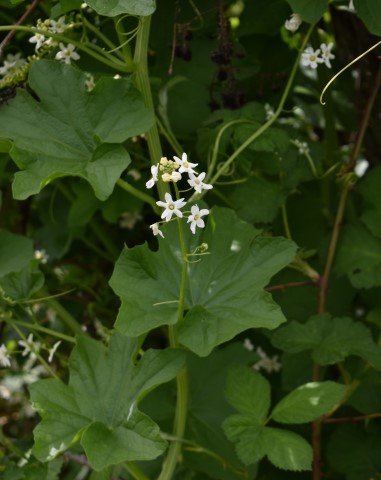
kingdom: Plantae
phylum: Tracheophyta
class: Magnoliopsida
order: Cucurbitales
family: Cucurbitaceae
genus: Marah
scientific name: Marah oregana
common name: Coastal manroot
